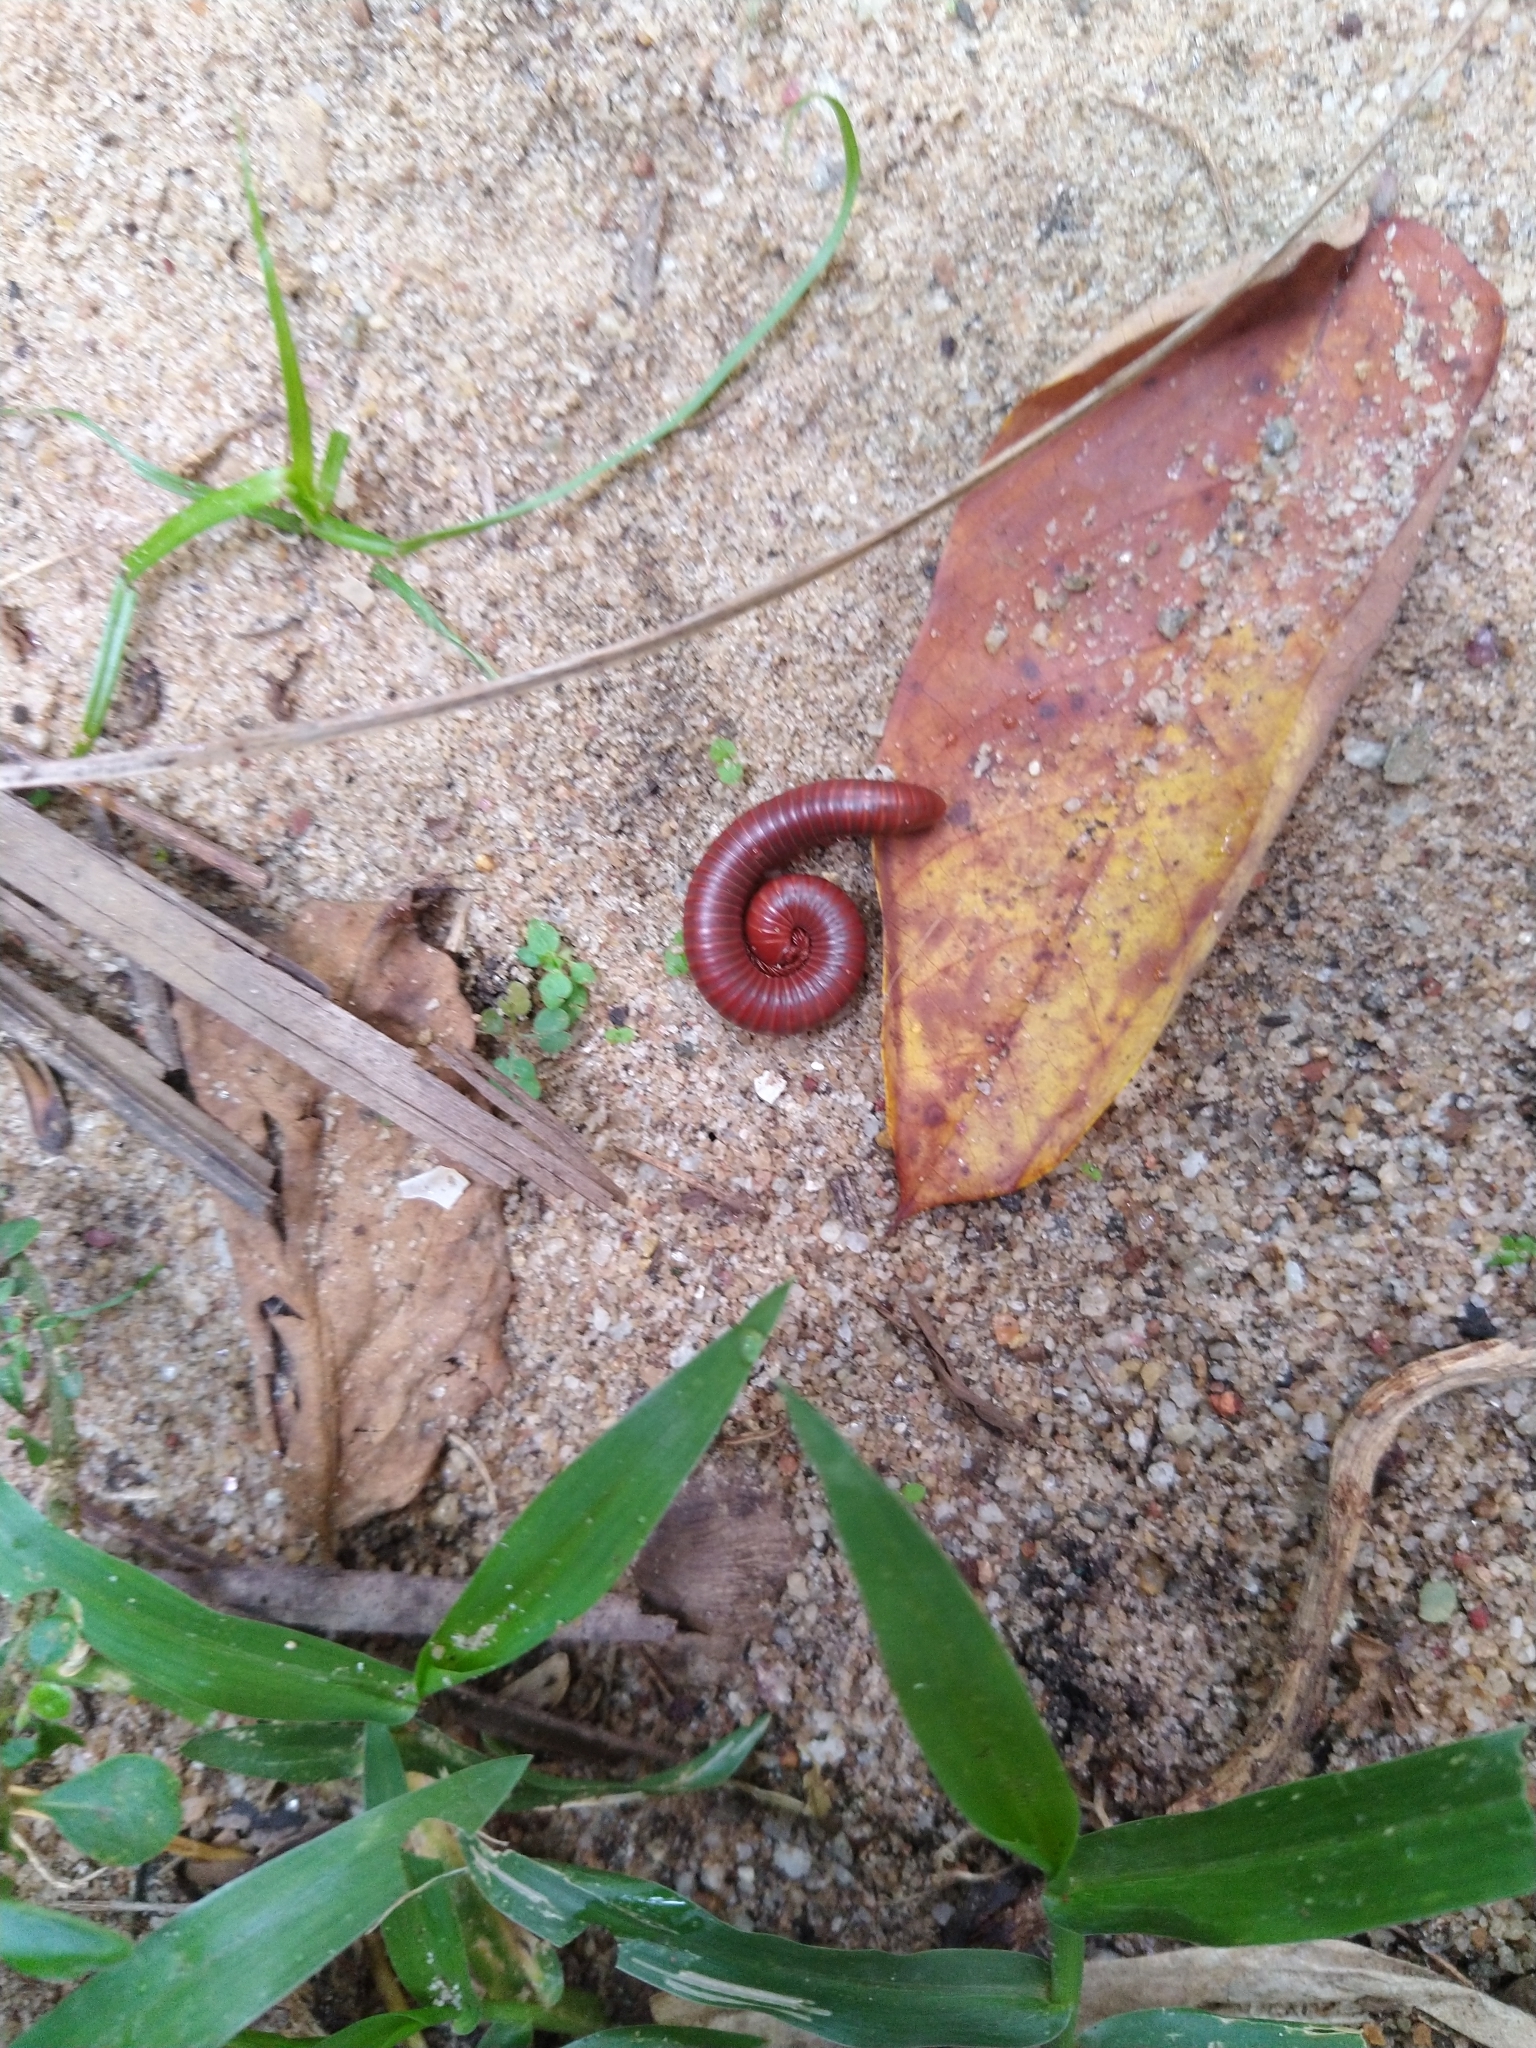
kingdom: Animalia
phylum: Arthropoda
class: Diplopoda
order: Spirobolida
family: Pachybolidae
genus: Trigoniulus
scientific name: Trigoniulus corallinus
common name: Millipede
